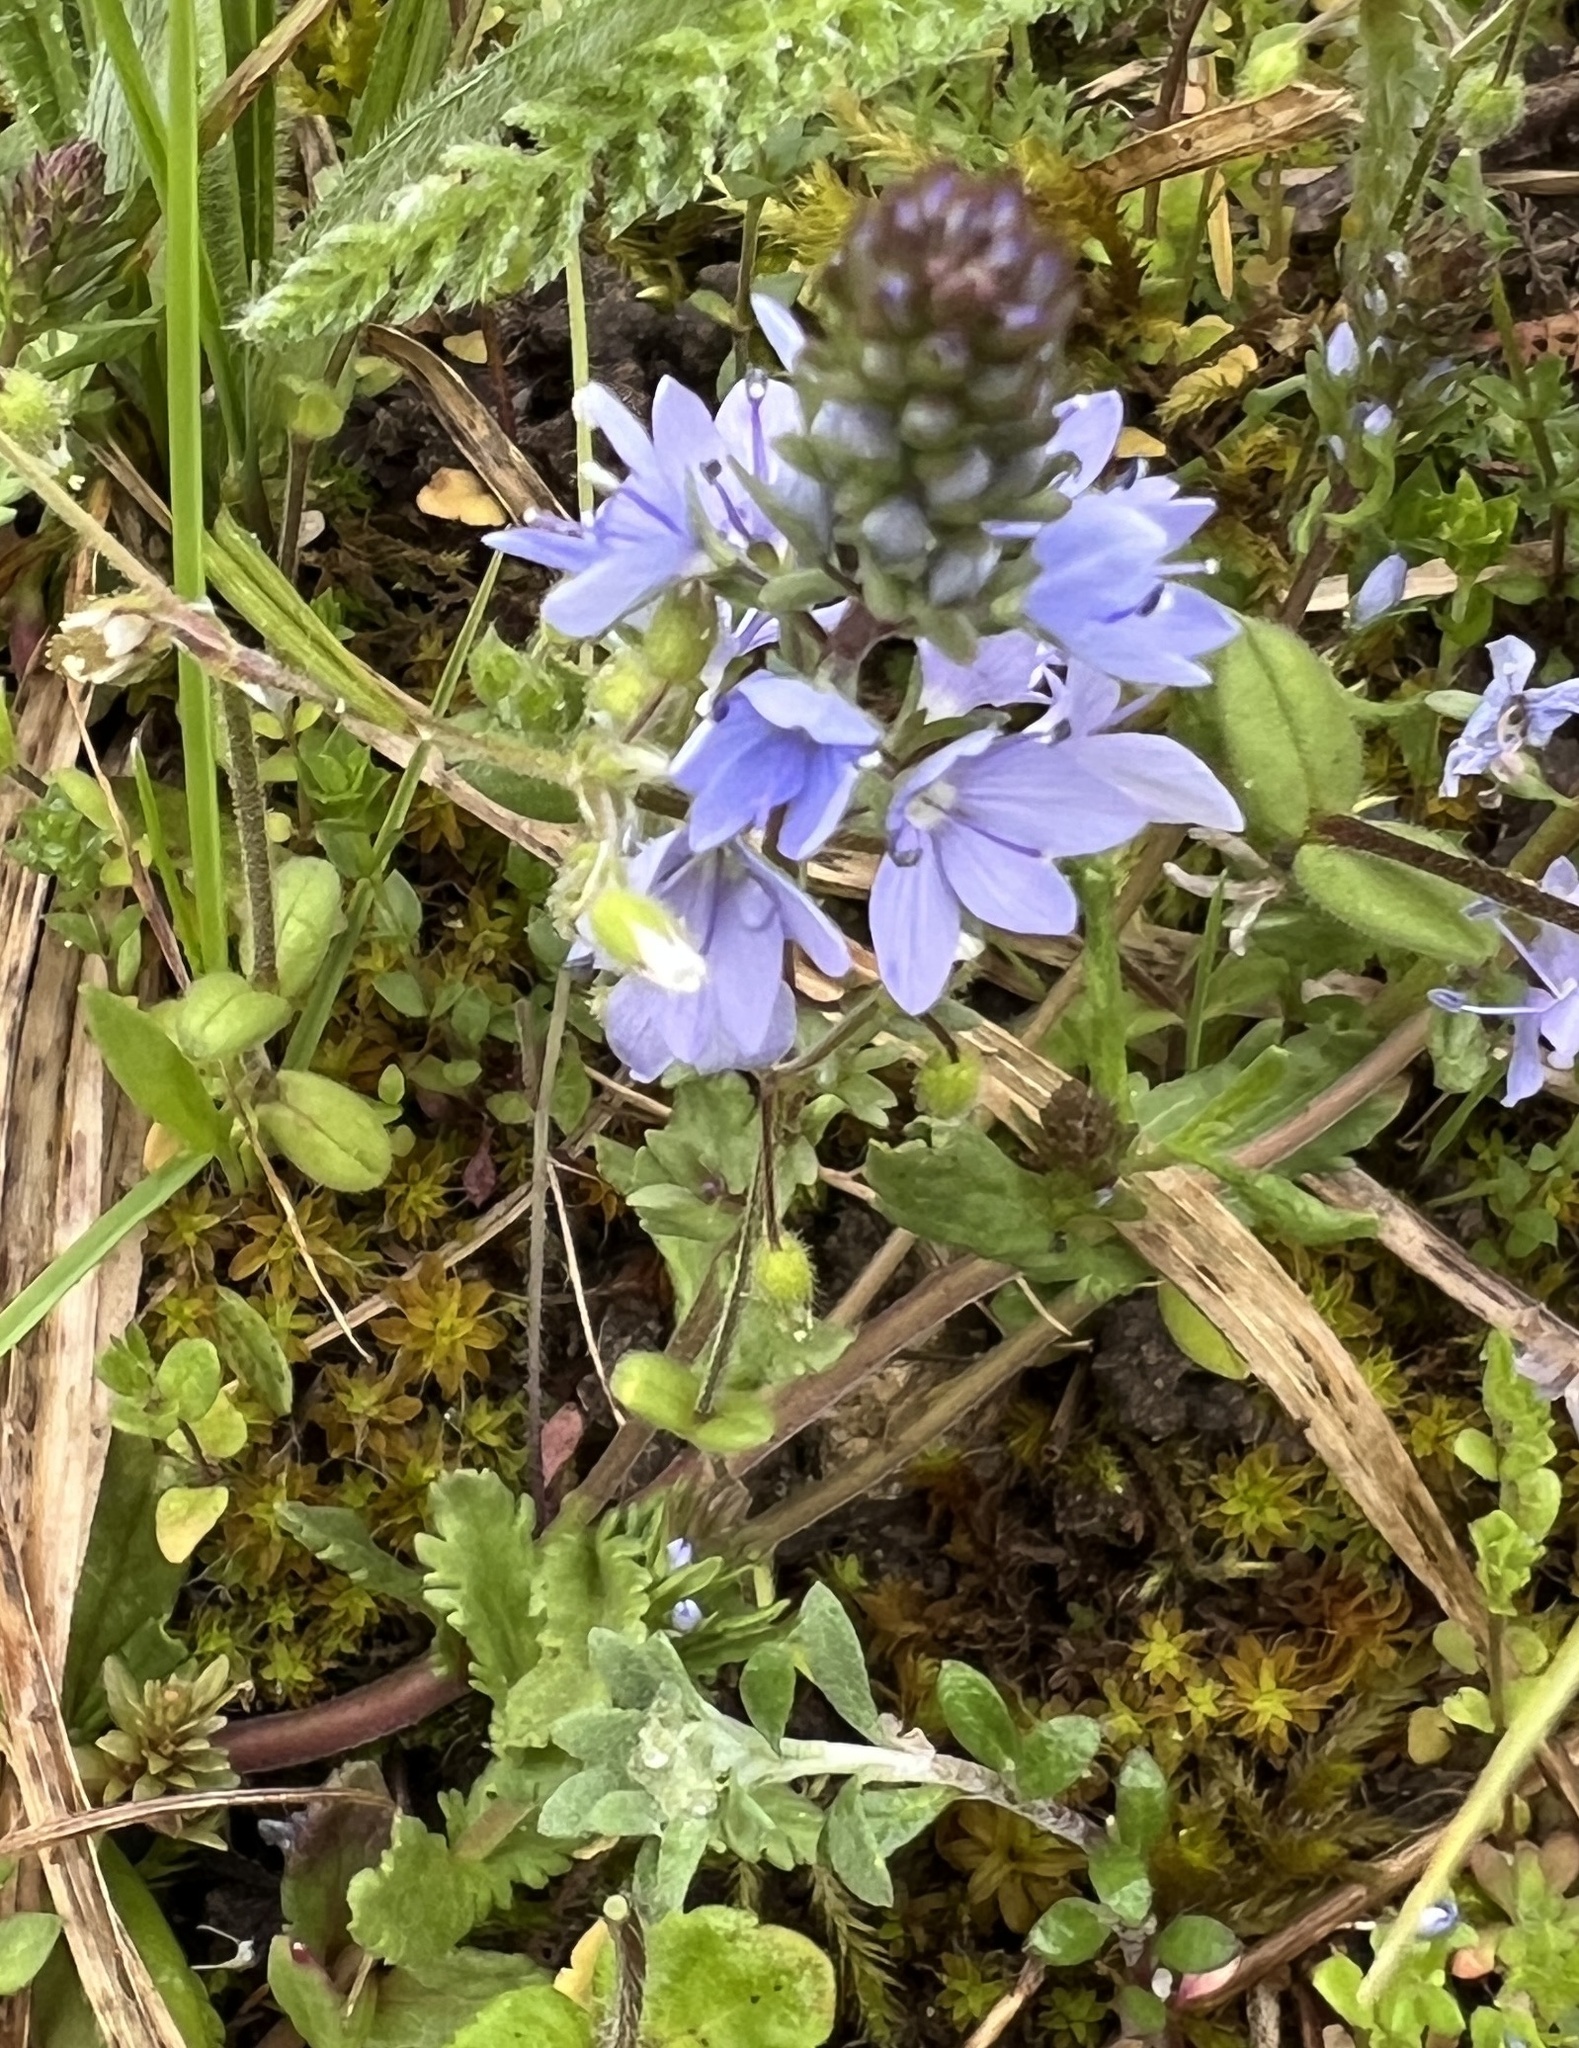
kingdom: Plantae
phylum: Tracheophyta
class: Magnoliopsida
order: Lamiales
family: Plantaginaceae
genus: Veronica
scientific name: Veronica prostrata
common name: Prostrate speedwell
